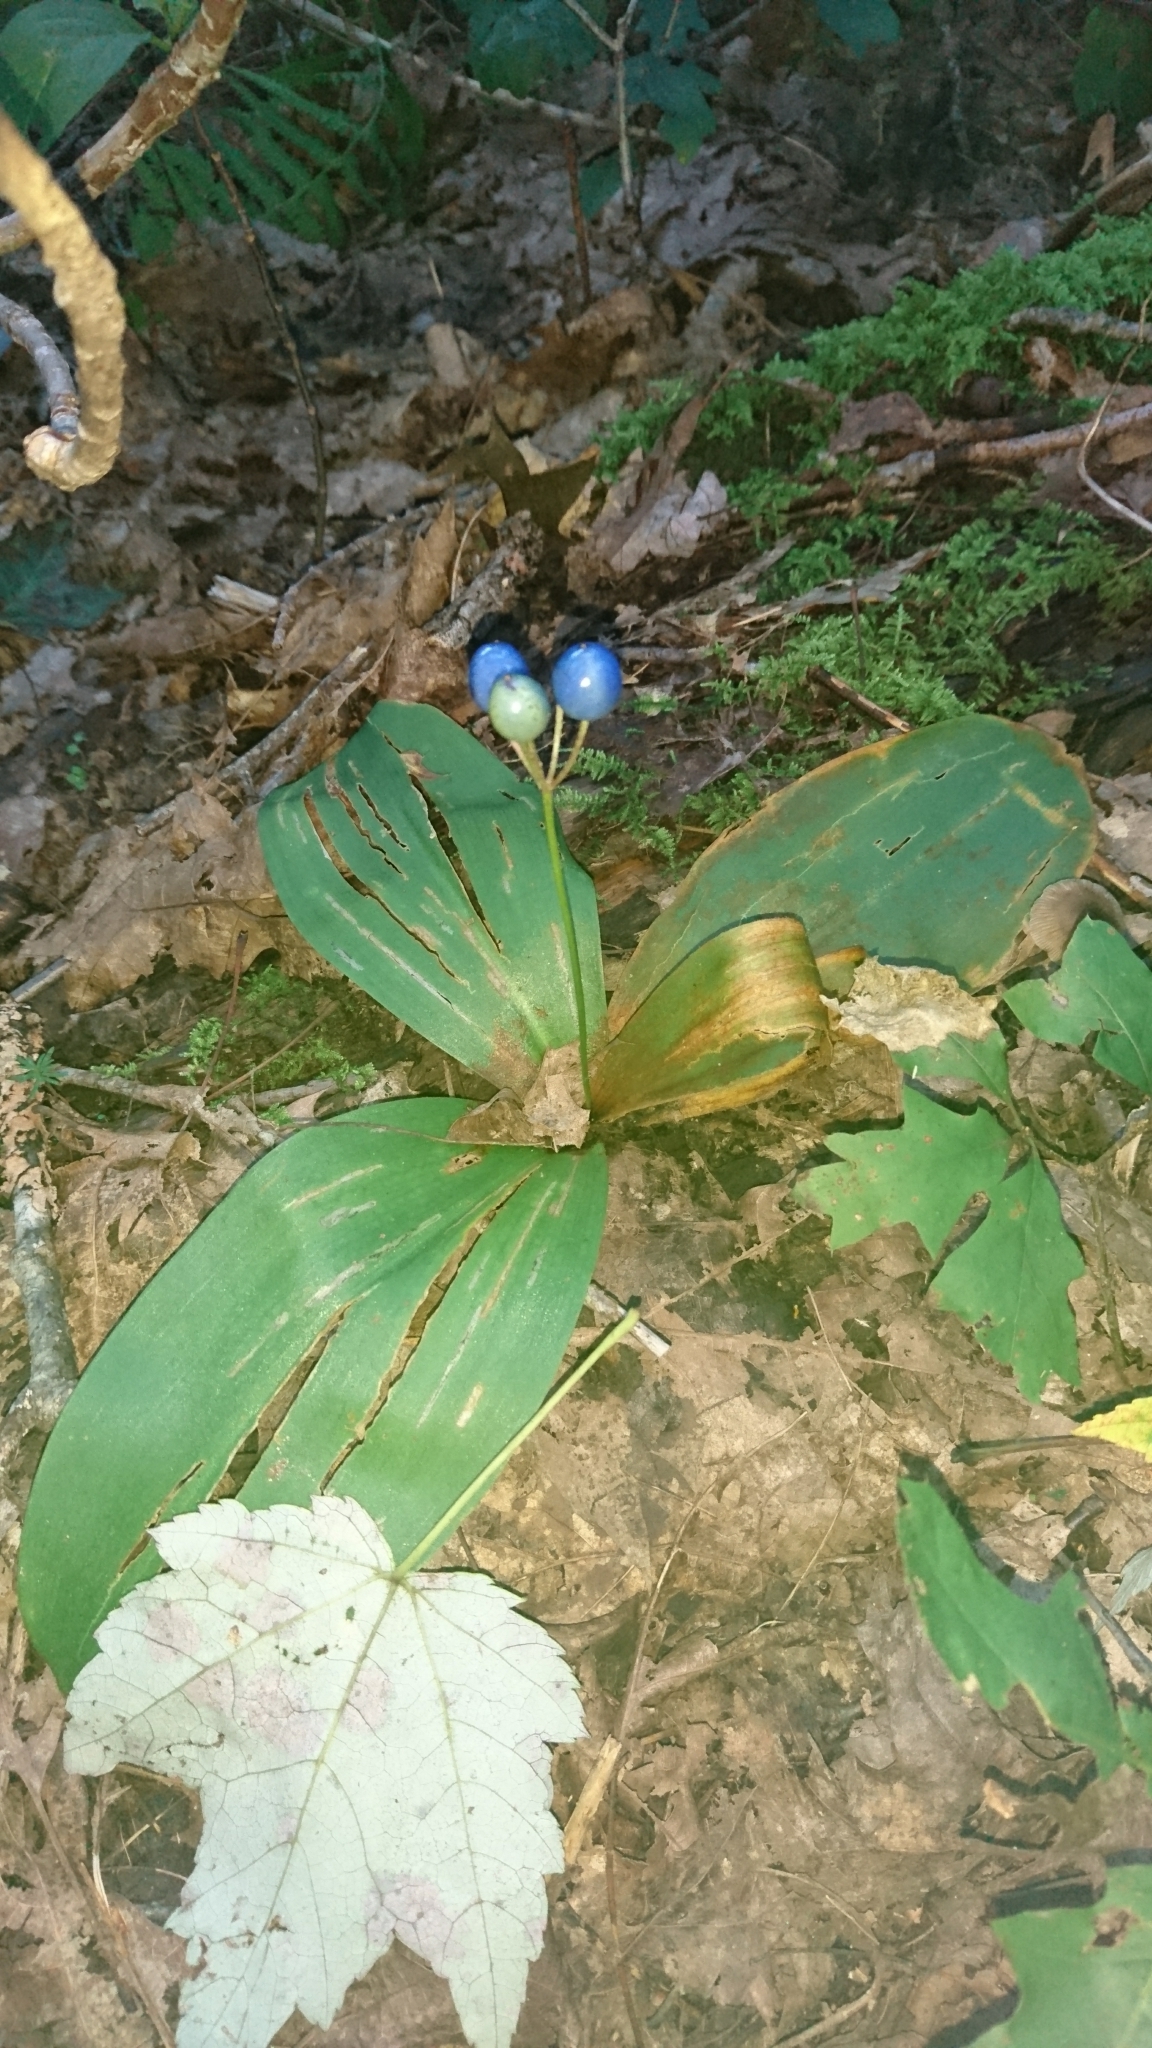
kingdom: Plantae
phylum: Tracheophyta
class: Liliopsida
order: Liliales
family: Liliaceae
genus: Clintonia
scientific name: Clintonia borealis
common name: Yellow clintonia
